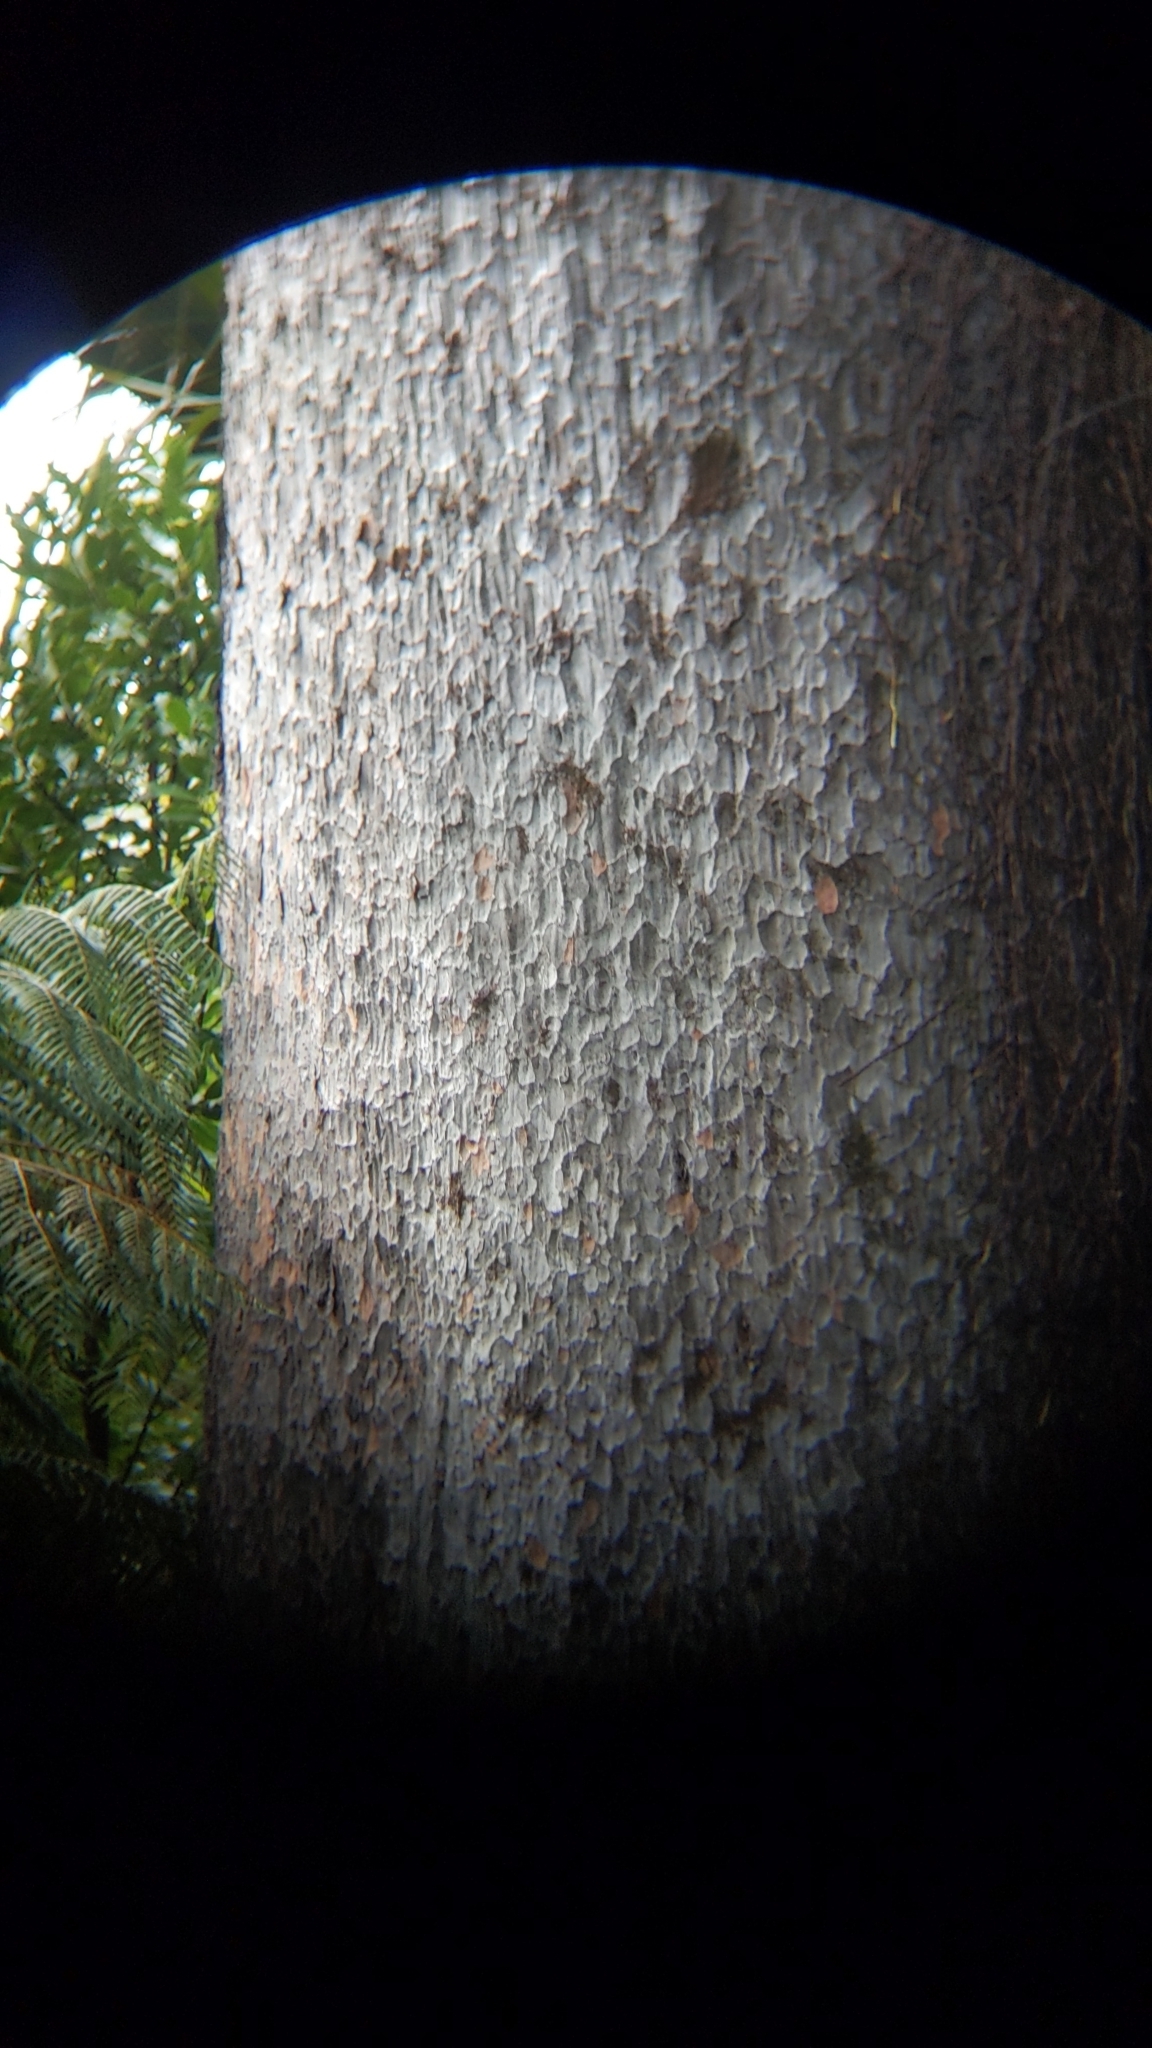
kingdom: Plantae
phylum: Tracheophyta
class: Pinopsida
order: Pinales
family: Podocarpaceae
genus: Prumnopitys
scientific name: Prumnopitys taxifolia
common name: Matai
